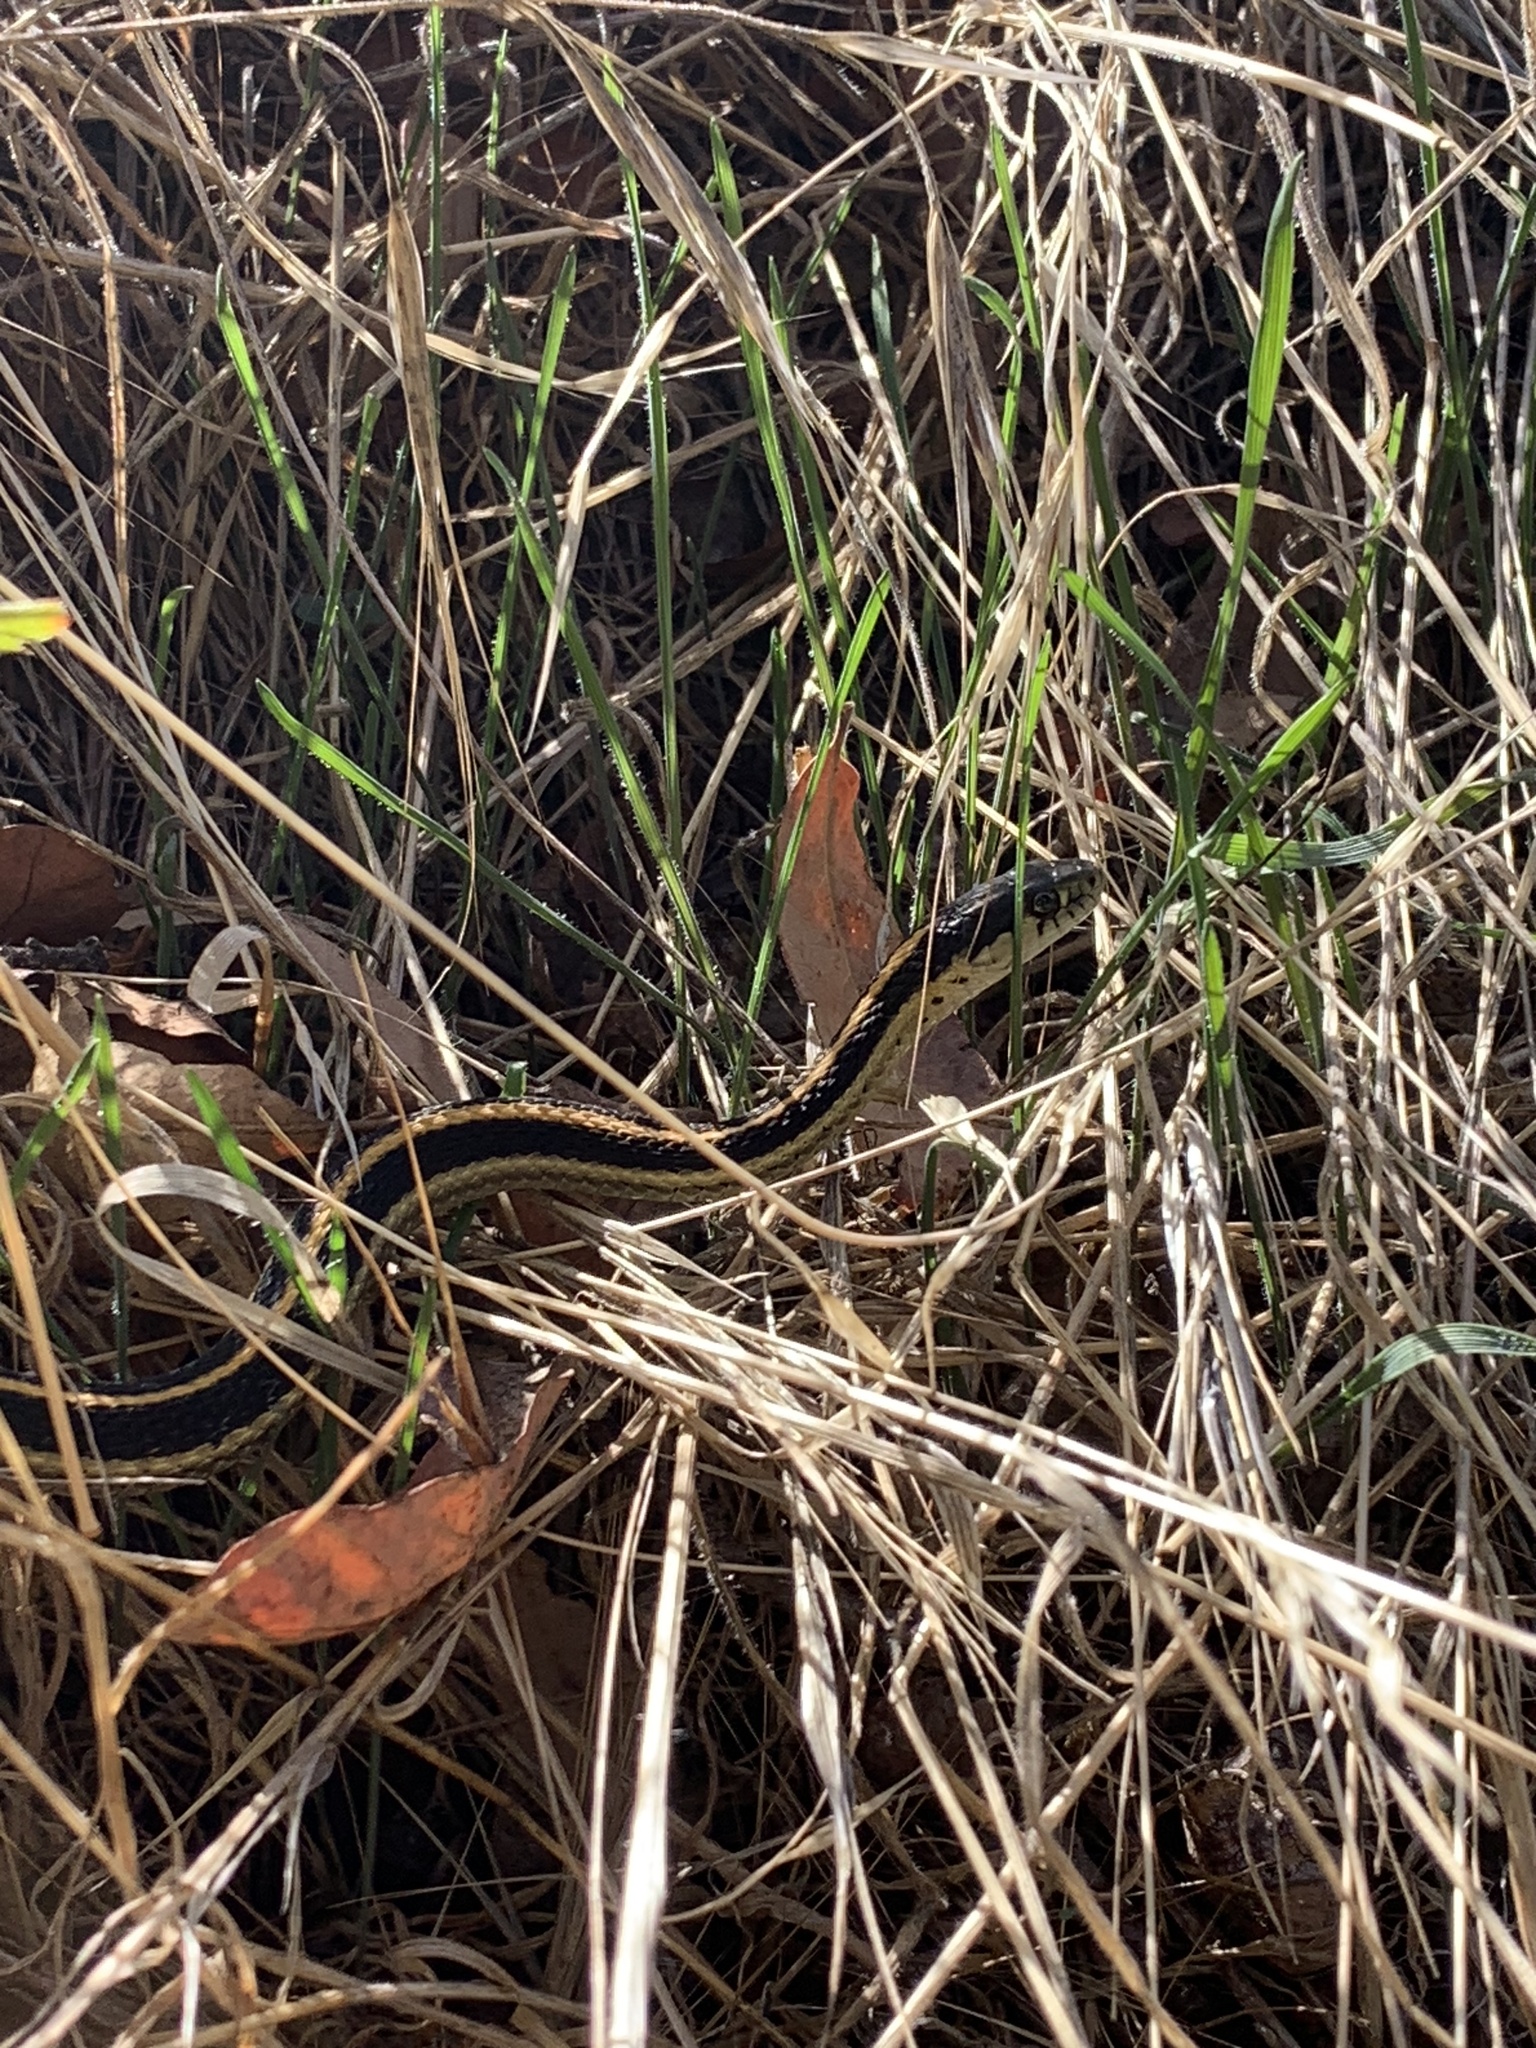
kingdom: Animalia
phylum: Chordata
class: Squamata
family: Colubridae
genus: Thamnophis
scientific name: Thamnophis elegans
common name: Western terrestrial garter snake
